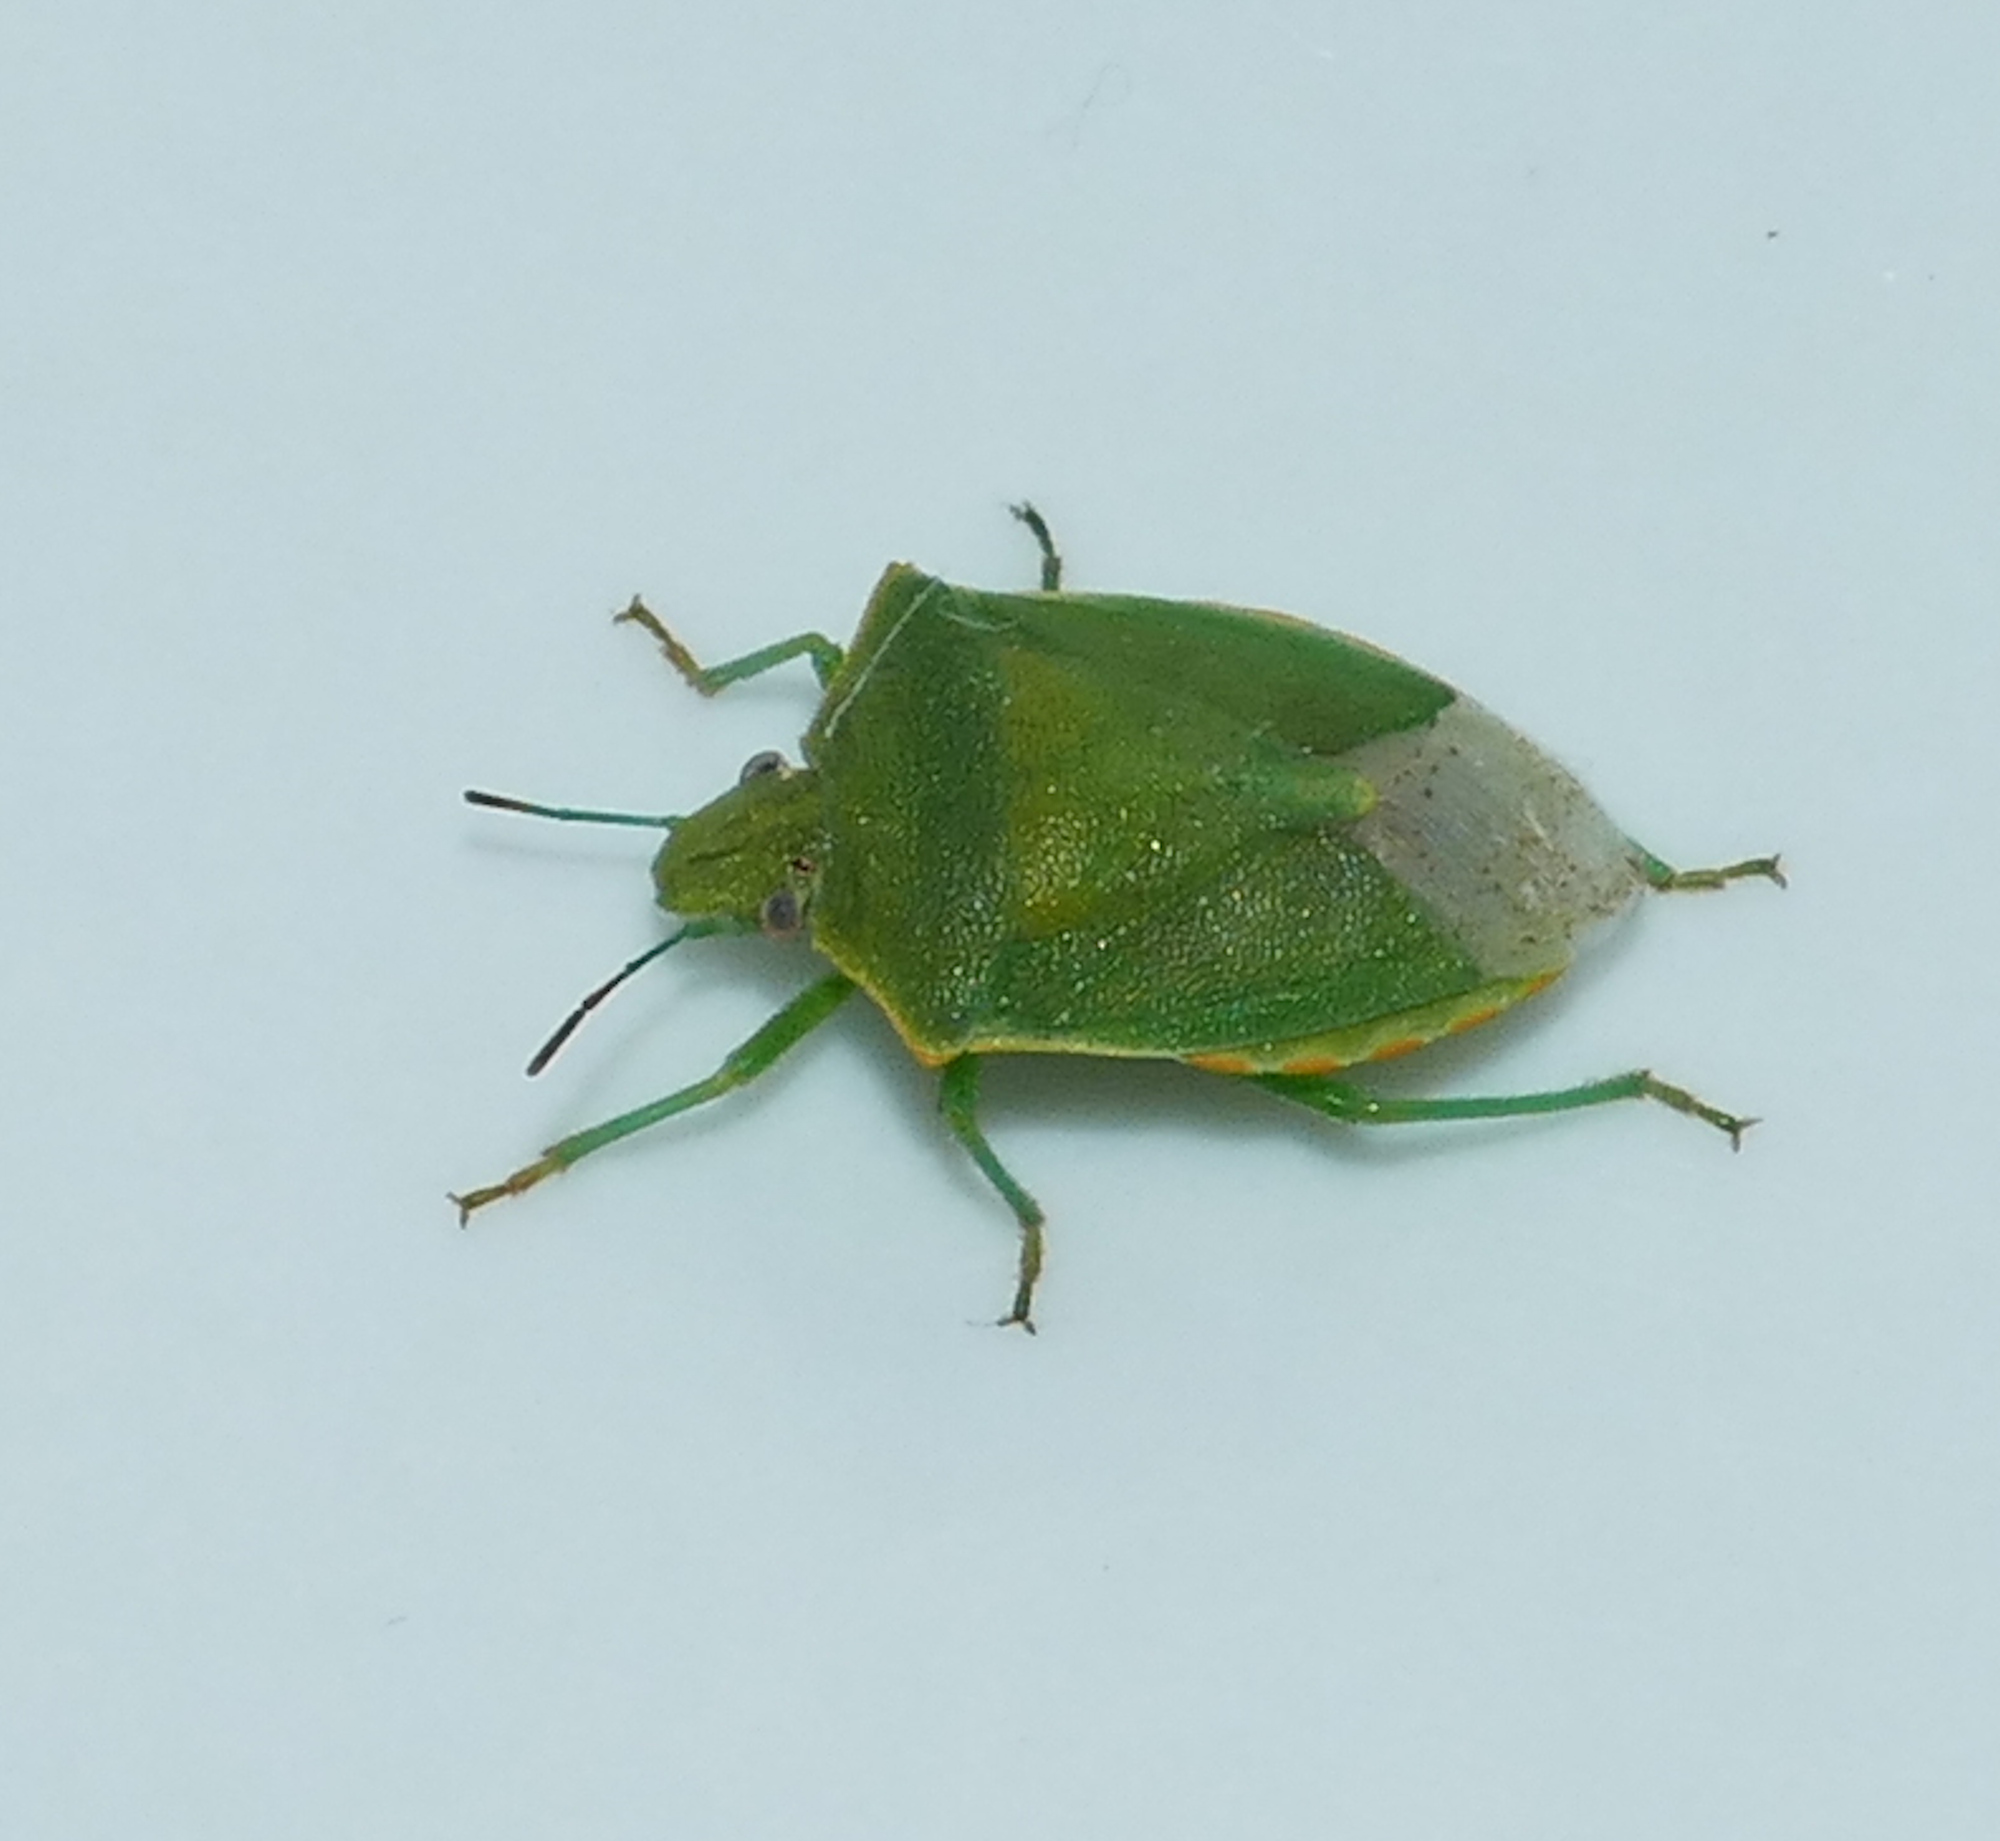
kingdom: Animalia
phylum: Arthropoda
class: Insecta
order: Hemiptera
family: Pentatomidae
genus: Thyanta
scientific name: Thyanta custator
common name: Stink bug
